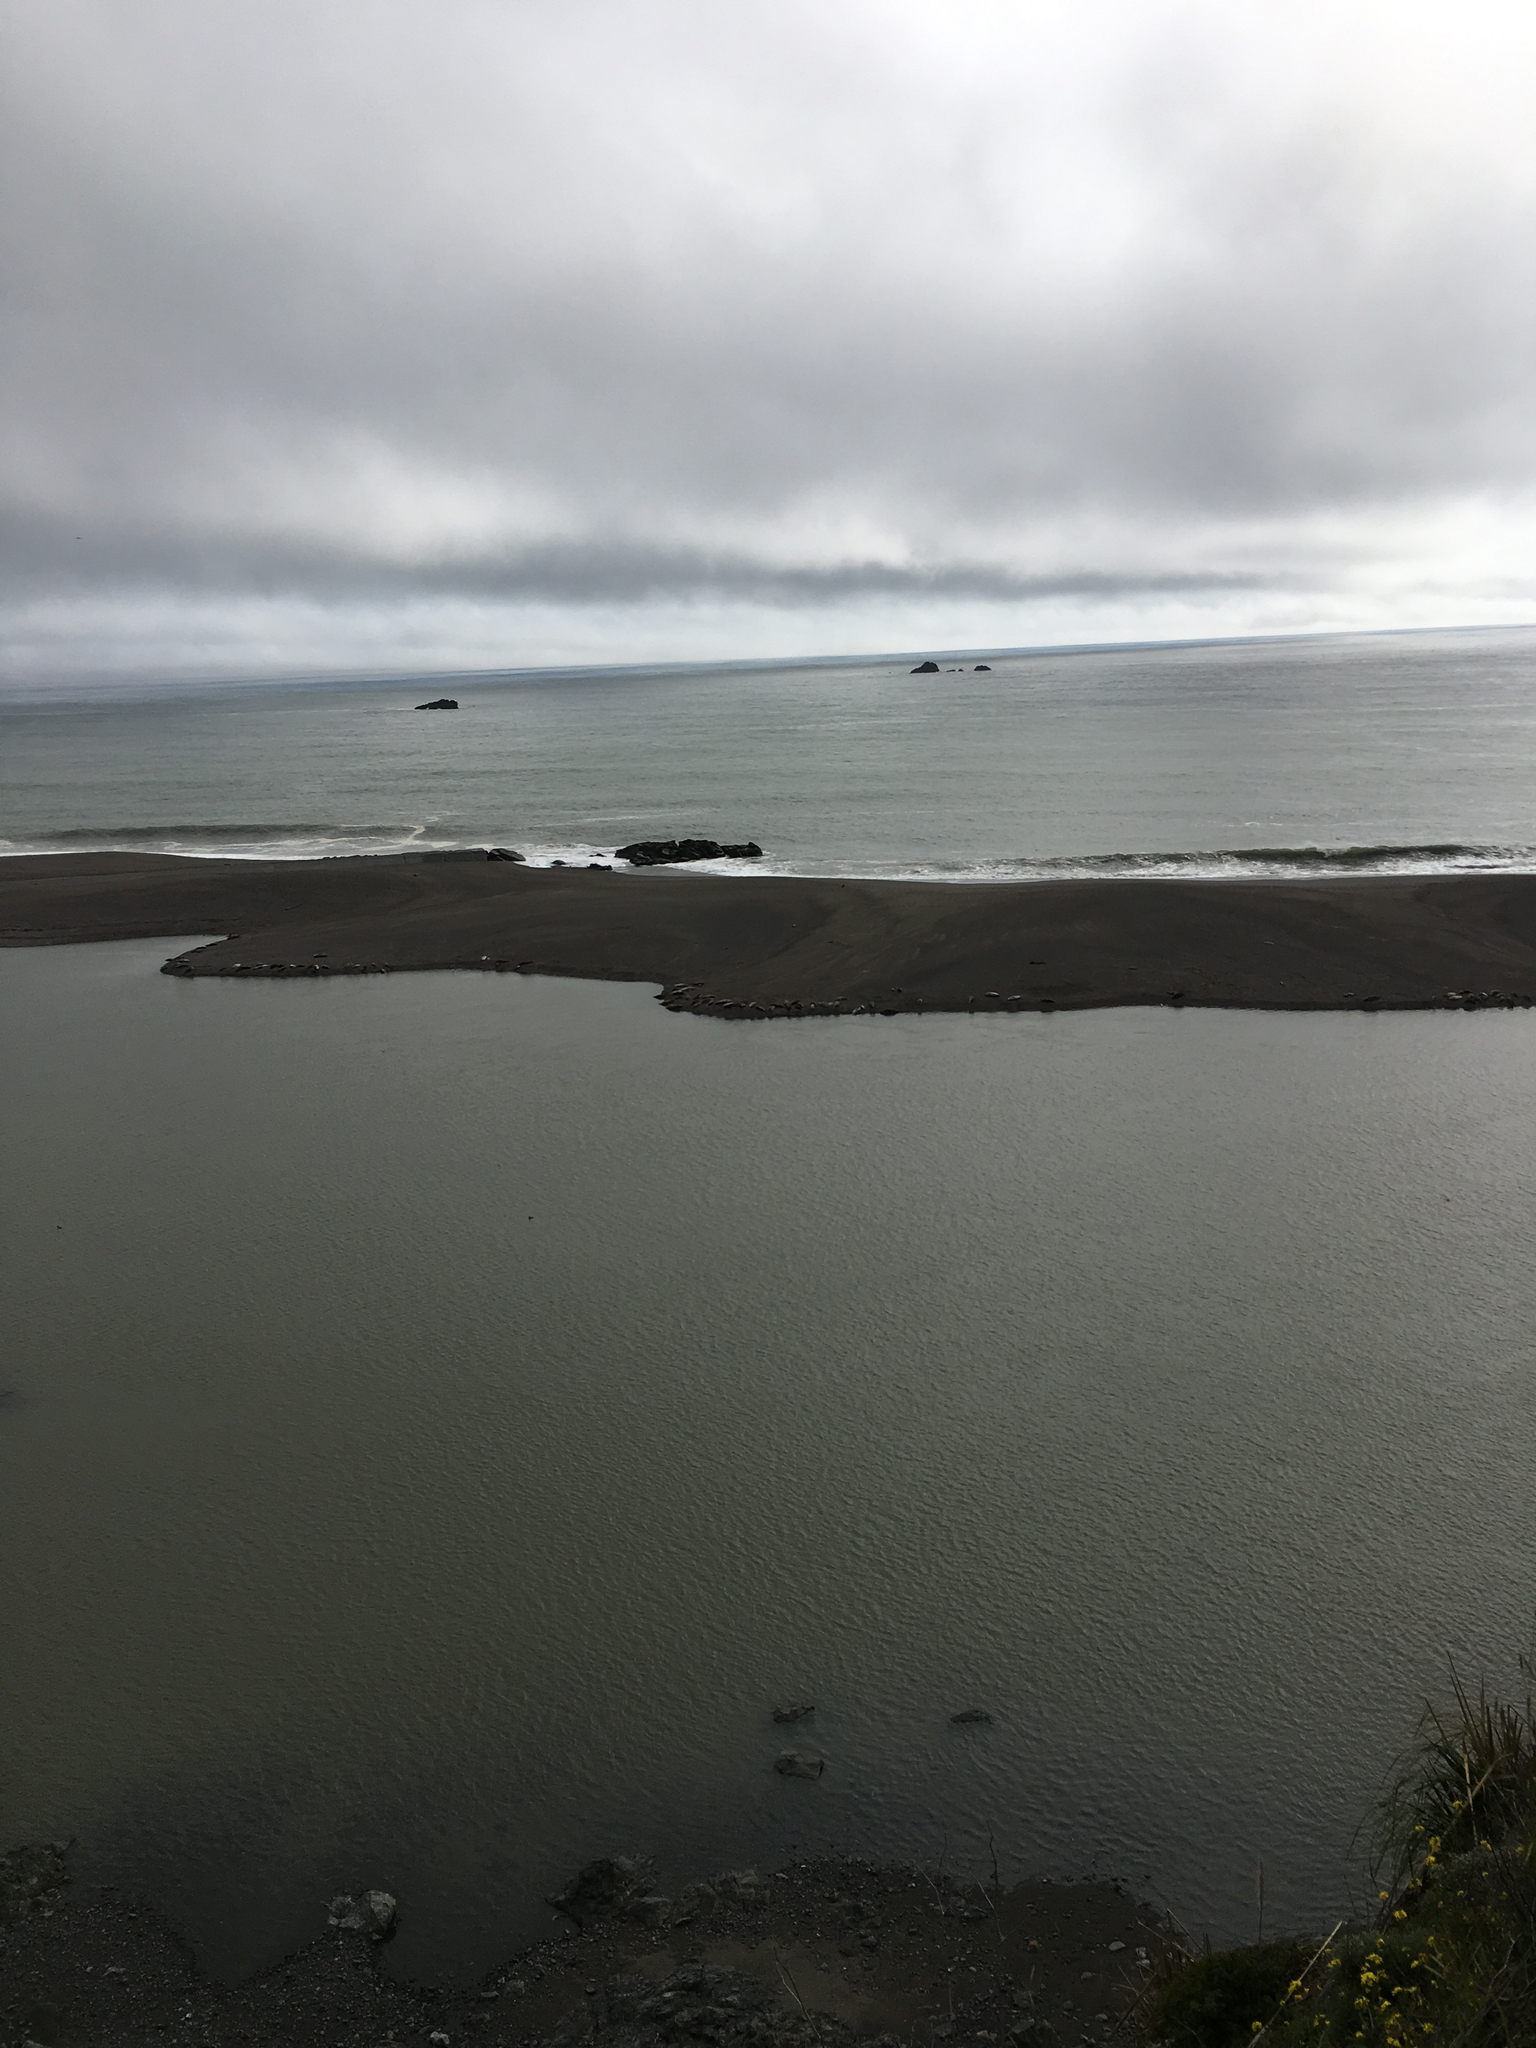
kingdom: Animalia
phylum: Chordata
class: Mammalia
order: Carnivora
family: Phocidae
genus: Phoca
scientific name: Phoca vitulina
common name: Harbor seal
